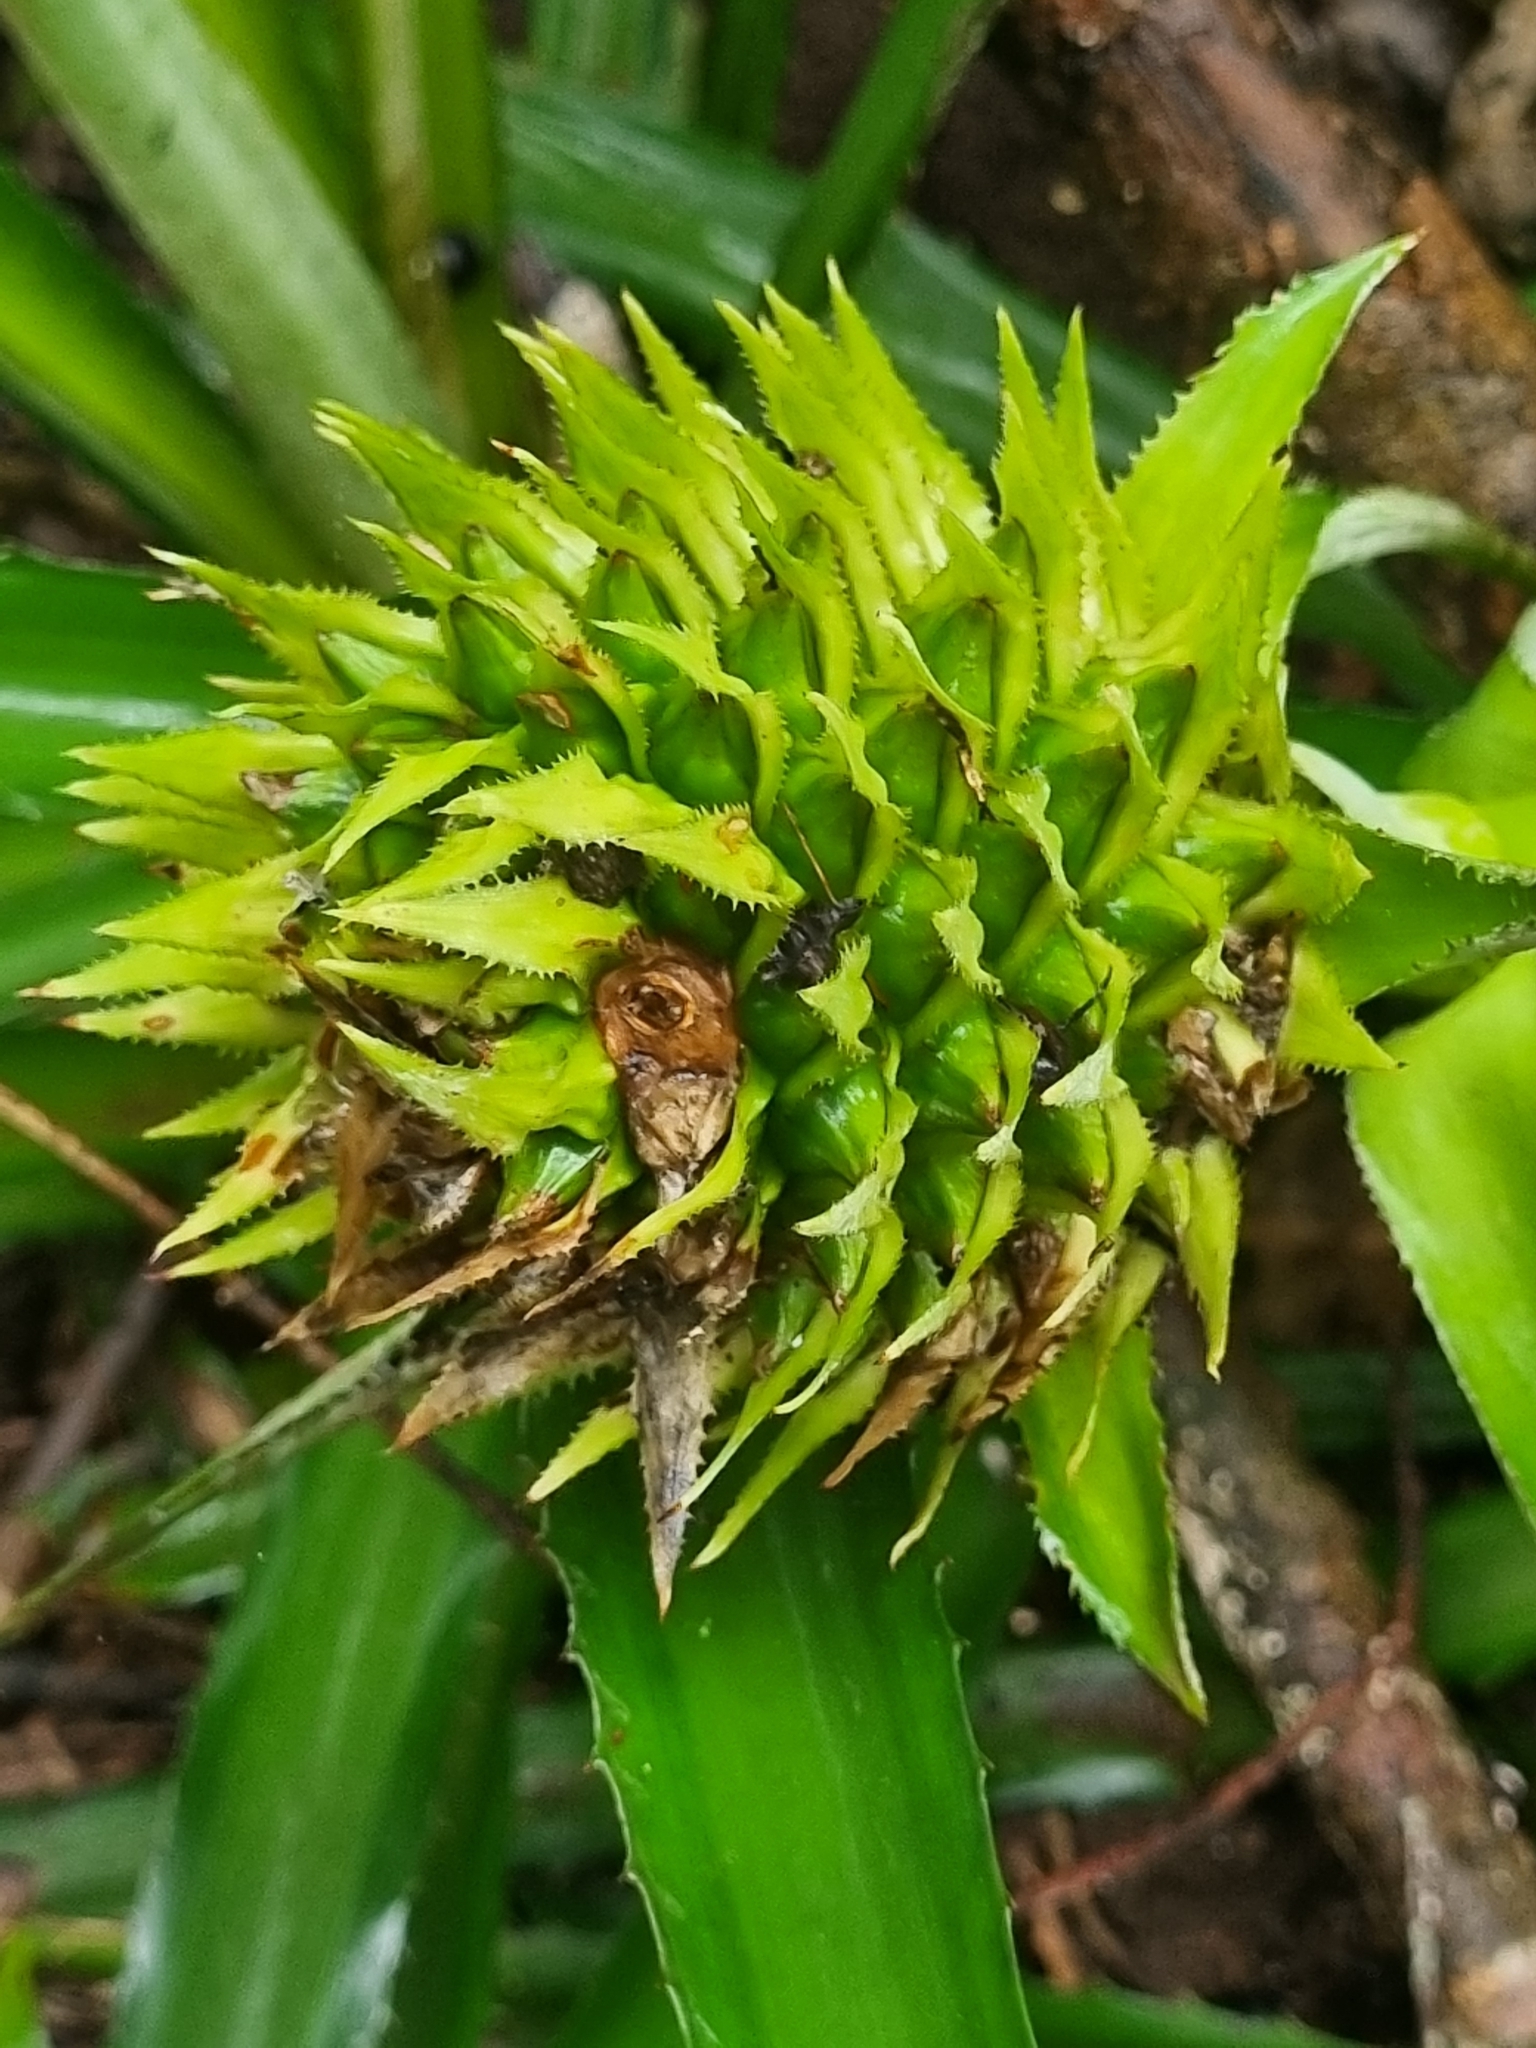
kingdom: Plantae
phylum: Tracheophyta
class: Liliopsida
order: Poales
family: Bromeliaceae
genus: Ananas
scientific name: Ananas macrodontes
